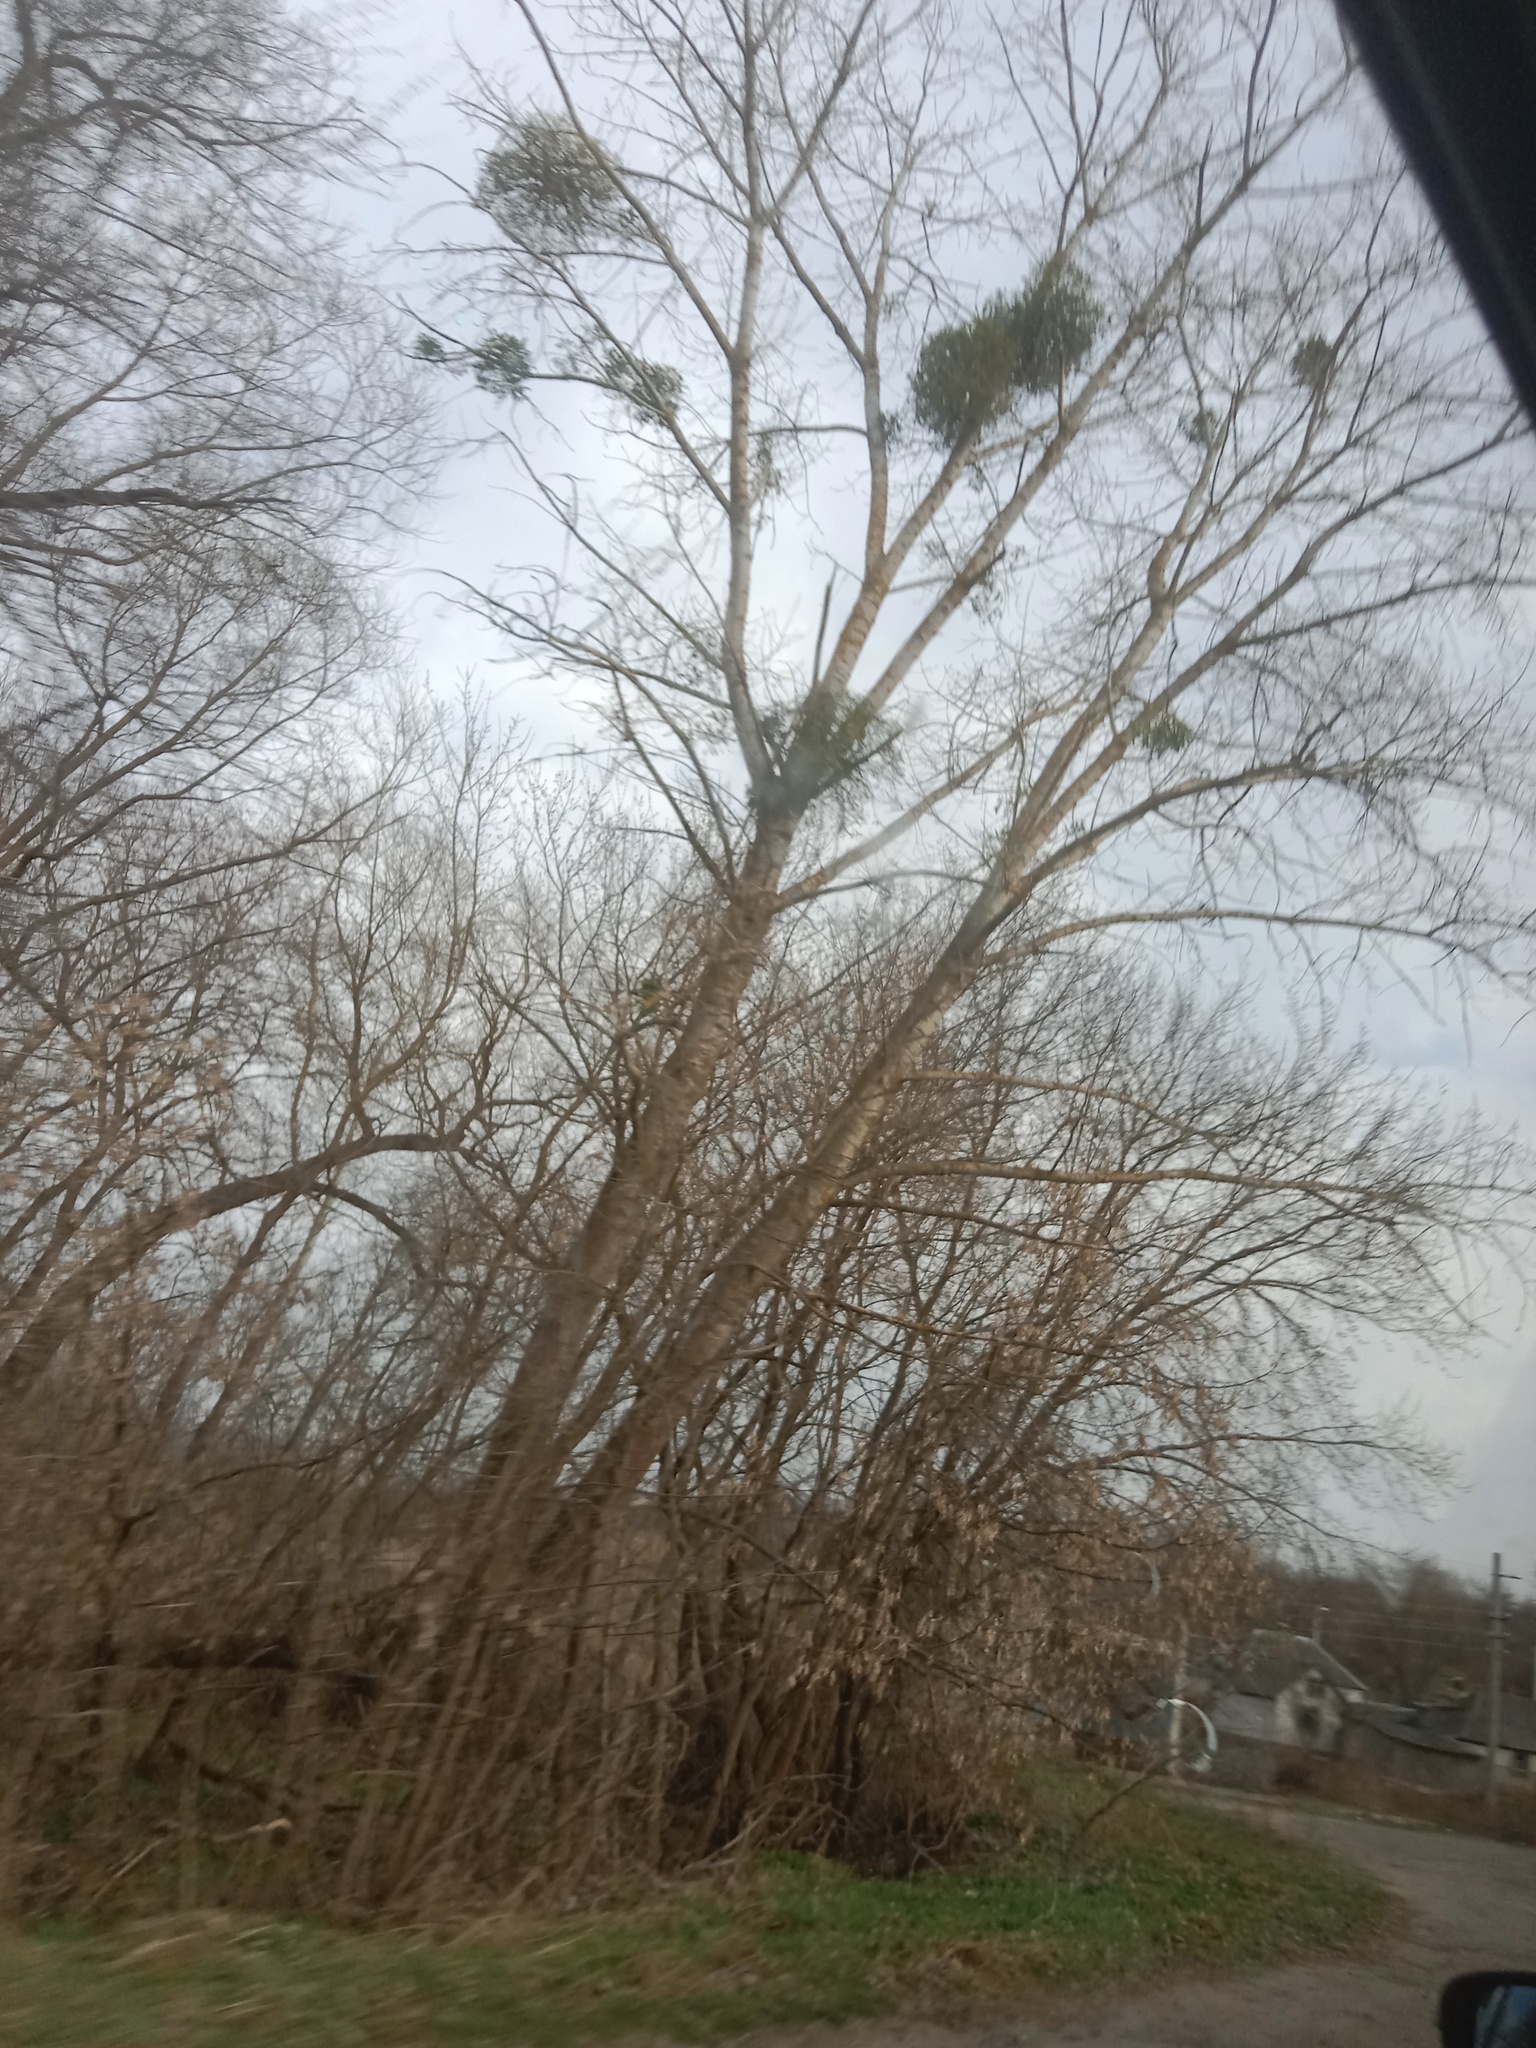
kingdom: Plantae
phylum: Tracheophyta
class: Magnoliopsida
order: Santalales
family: Viscaceae
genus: Viscum
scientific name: Viscum album
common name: Mistletoe
